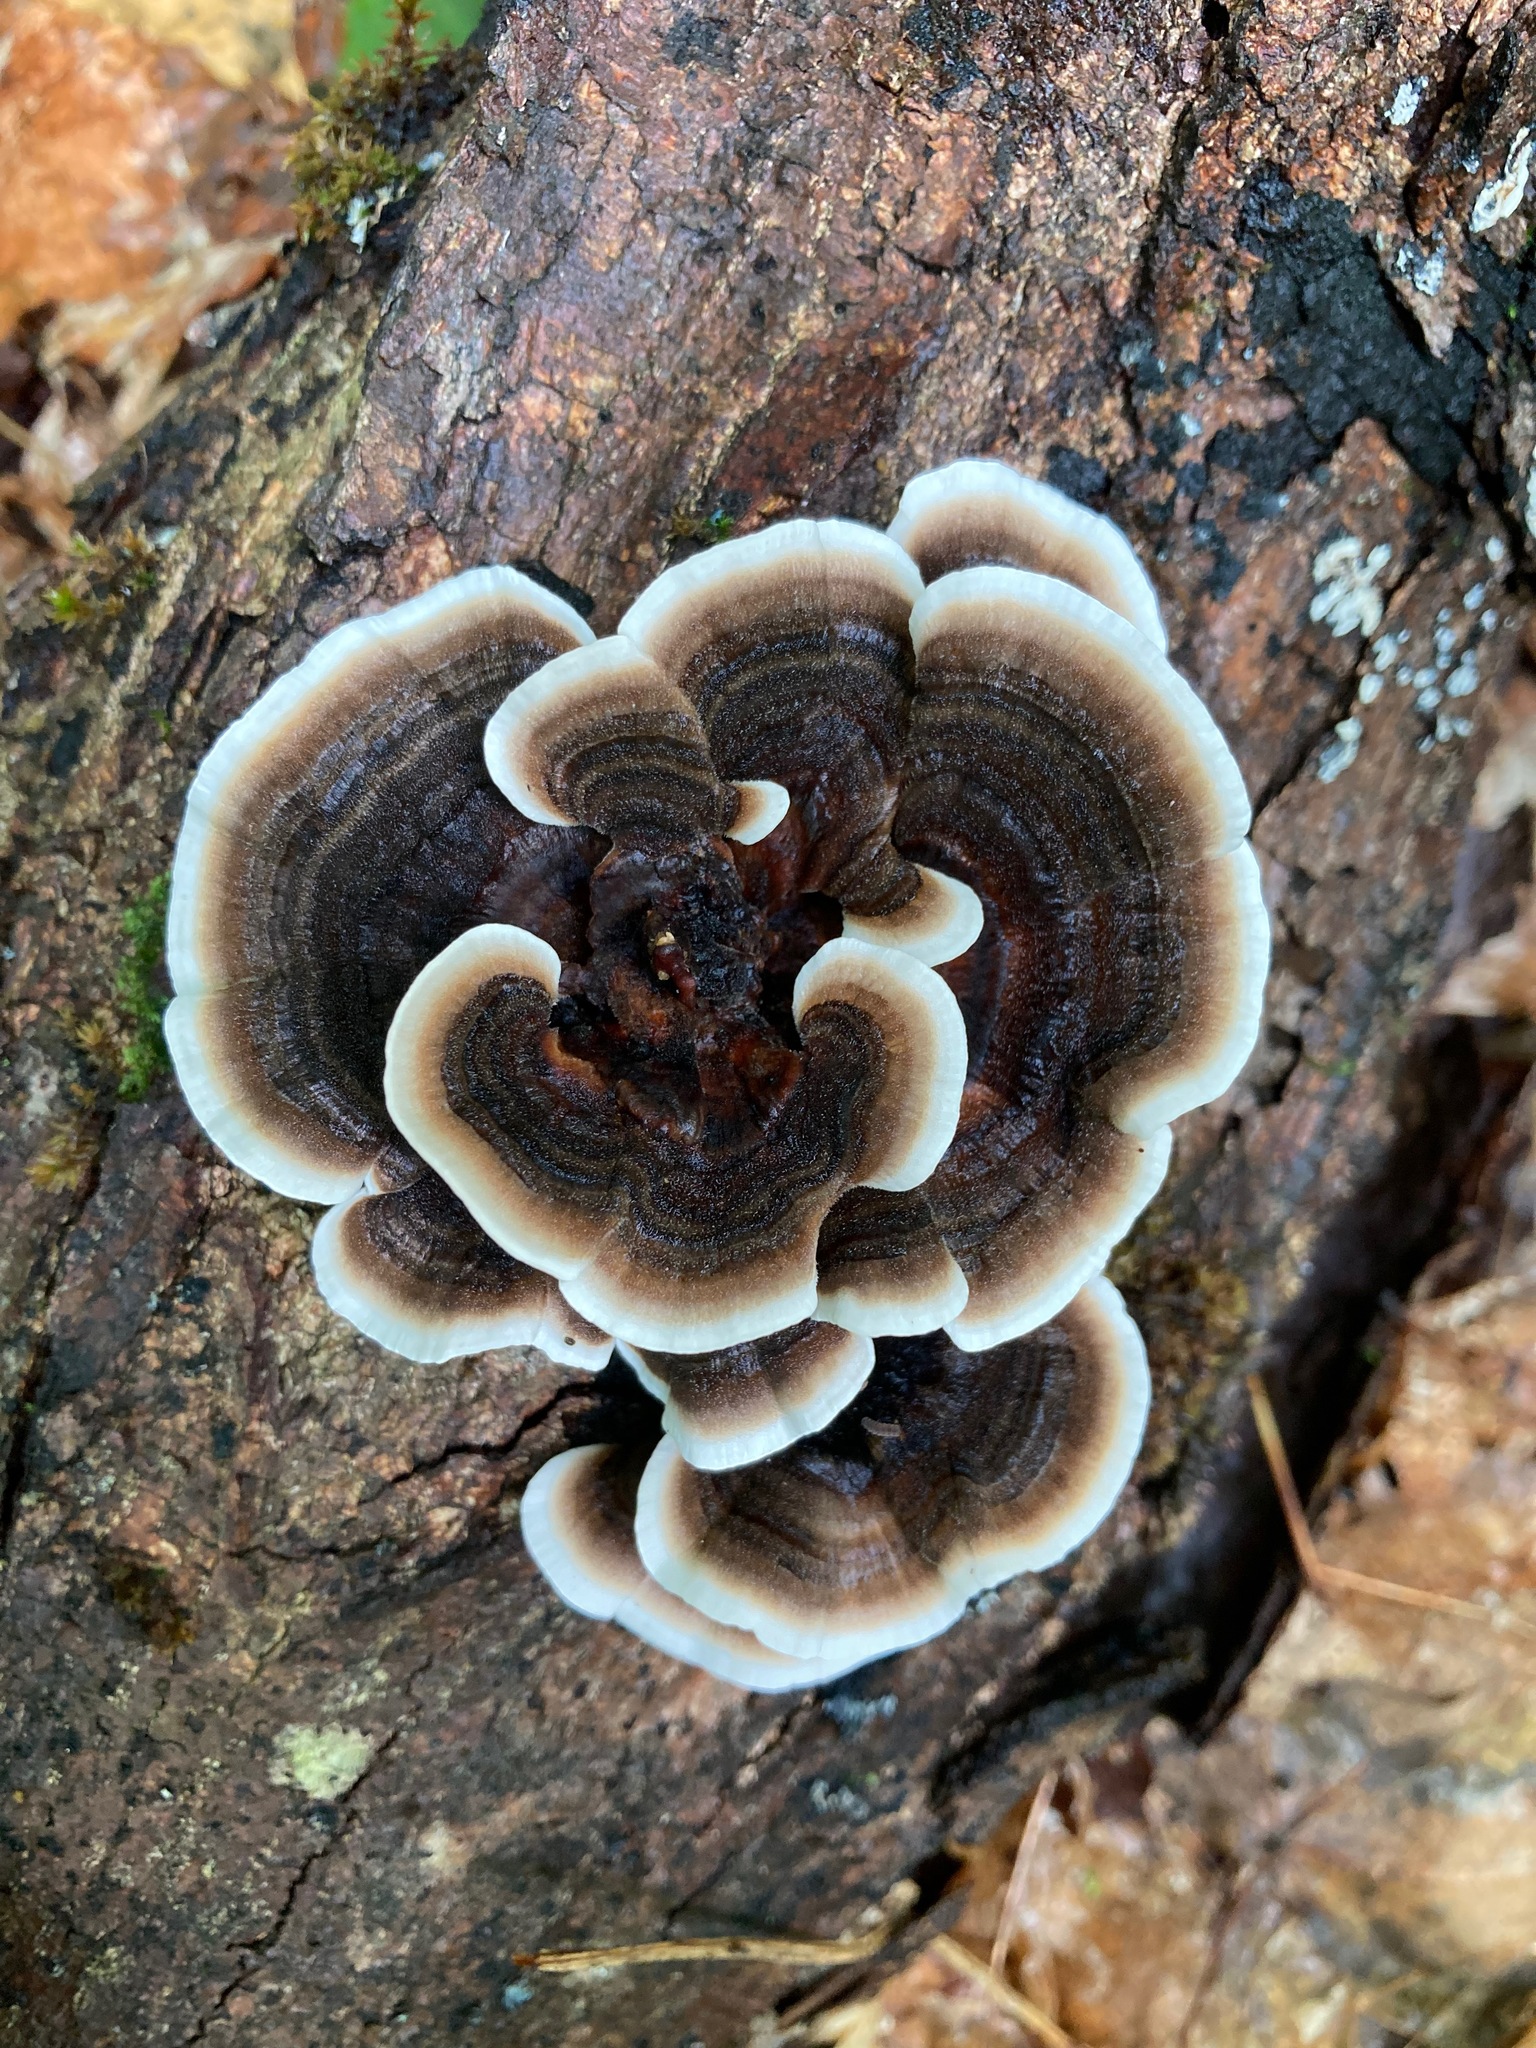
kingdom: Fungi
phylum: Basidiomycota
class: Agaricomycetes
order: Polyporales
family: Polyporaceae
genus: Trametes
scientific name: Trametes versicolor
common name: Turkeytail
